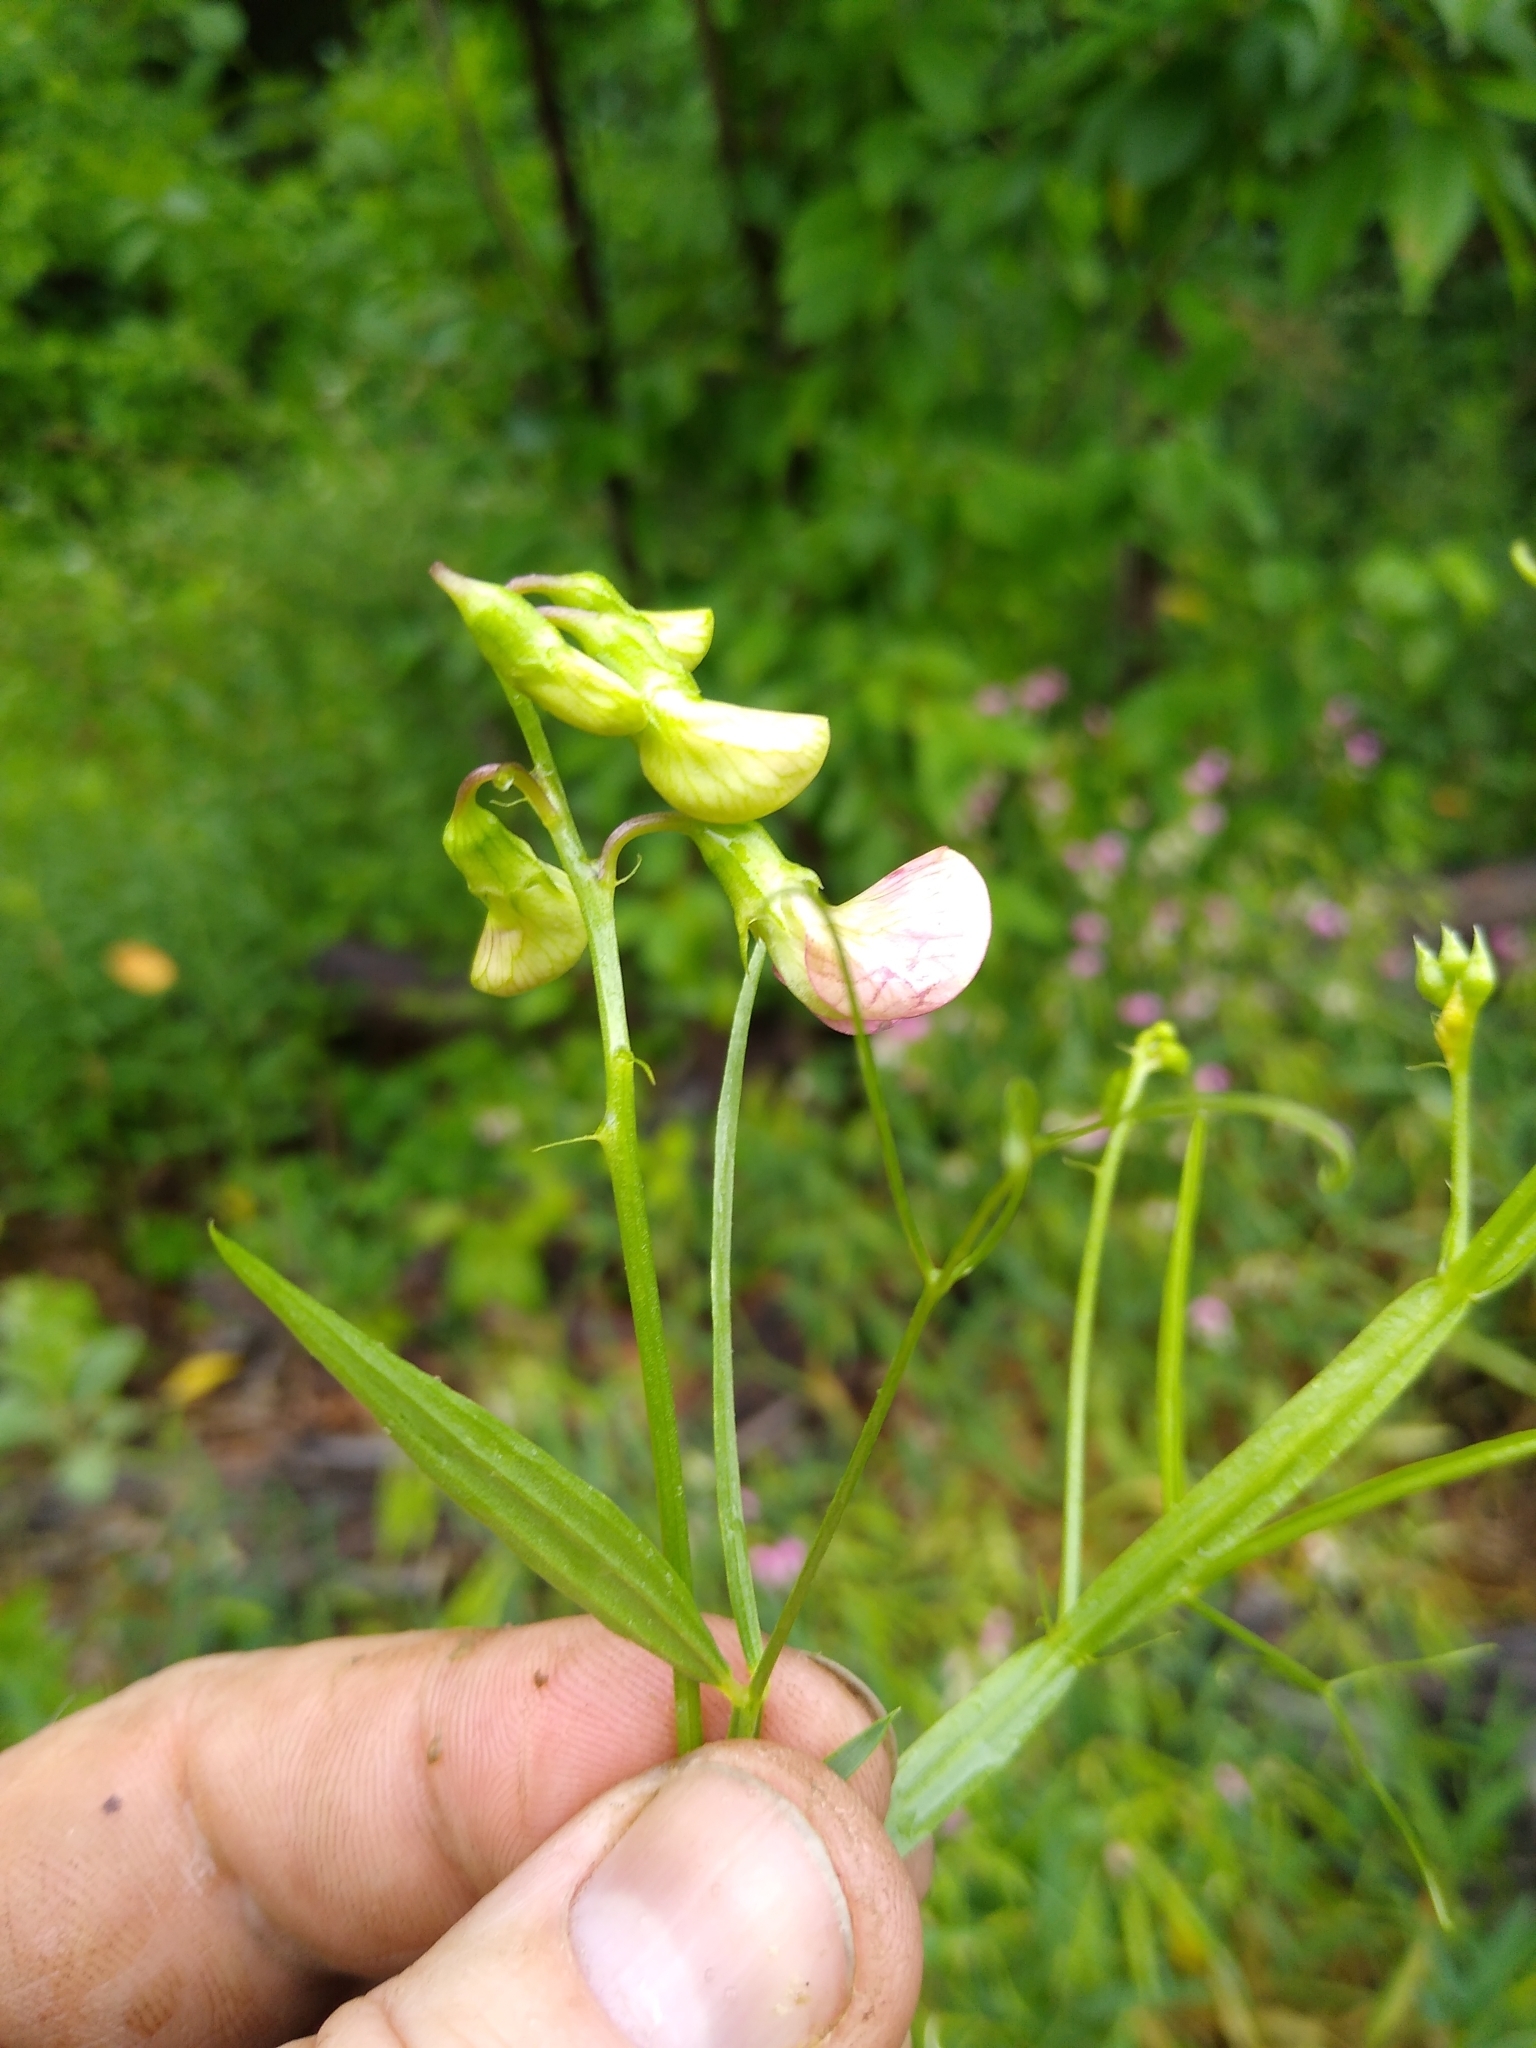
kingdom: Plantae
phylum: Tracheophyta
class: Magnoliopsida
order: Fabales
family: Fabaceae
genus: Lathyrus
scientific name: Lathyrus sylvestris
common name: Flat pea
